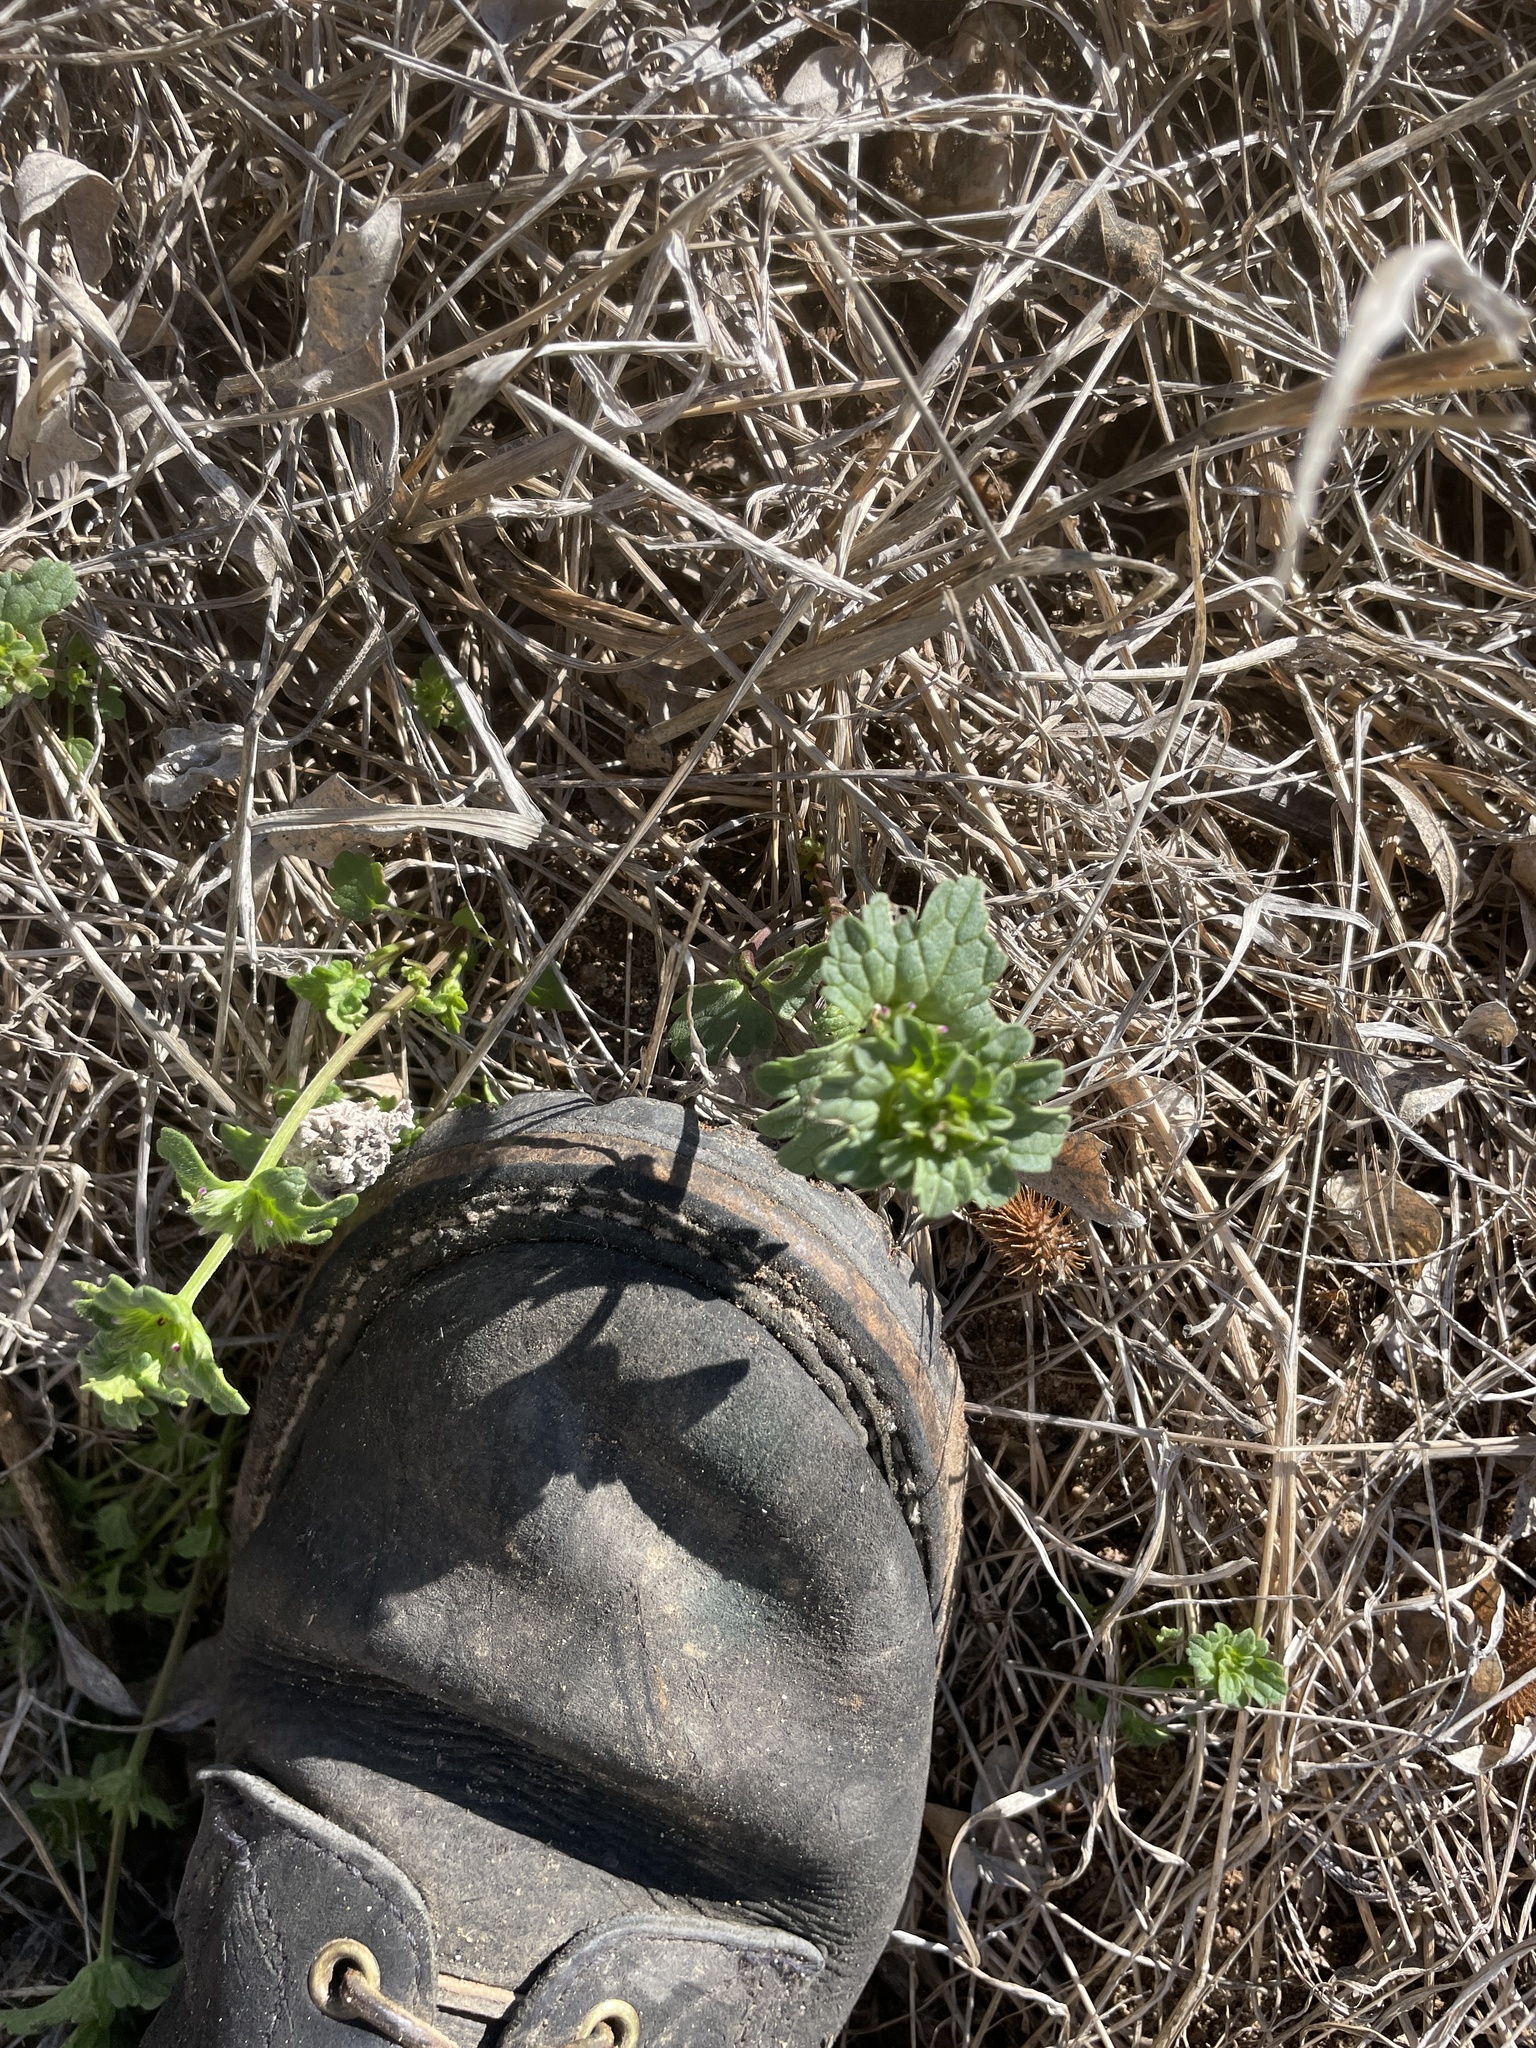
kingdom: Plantae
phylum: Tracheophyta
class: Magnoliopsida
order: Lamiales
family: Lamiaceae
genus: Lamium
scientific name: Lamium amplexicaule
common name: Henbit dead-nettle
